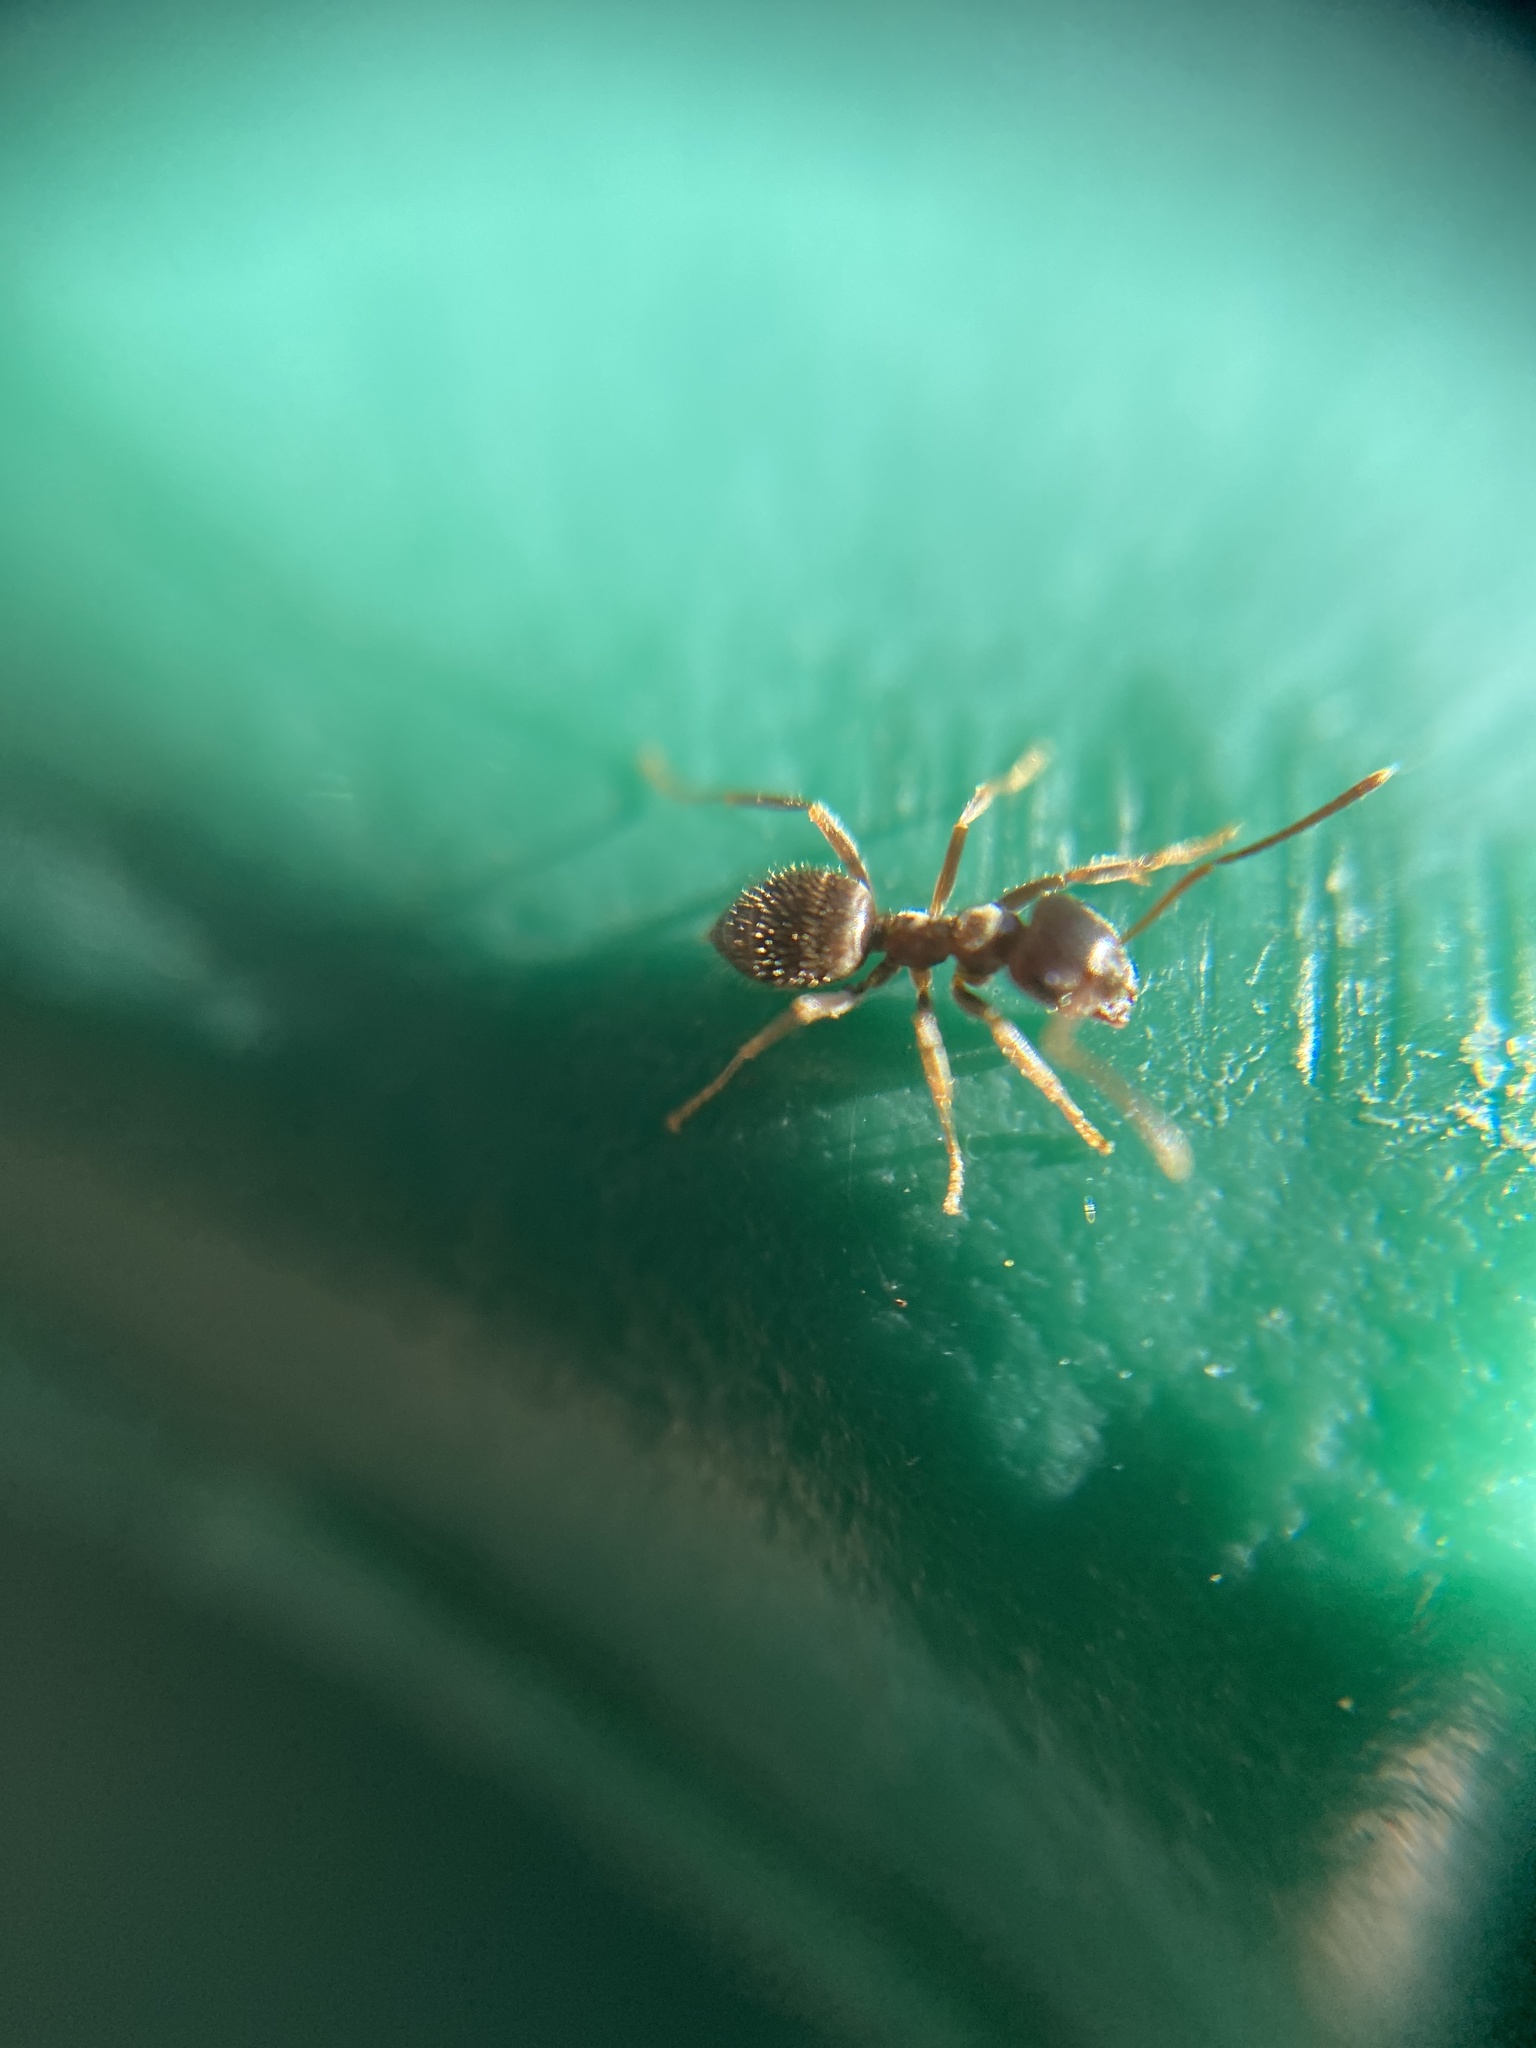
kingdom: Animalia
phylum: Arthropoda
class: Insecta
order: Hymenoptera
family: Formicidae
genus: Lasius
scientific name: Lasius niger
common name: Small black ant
